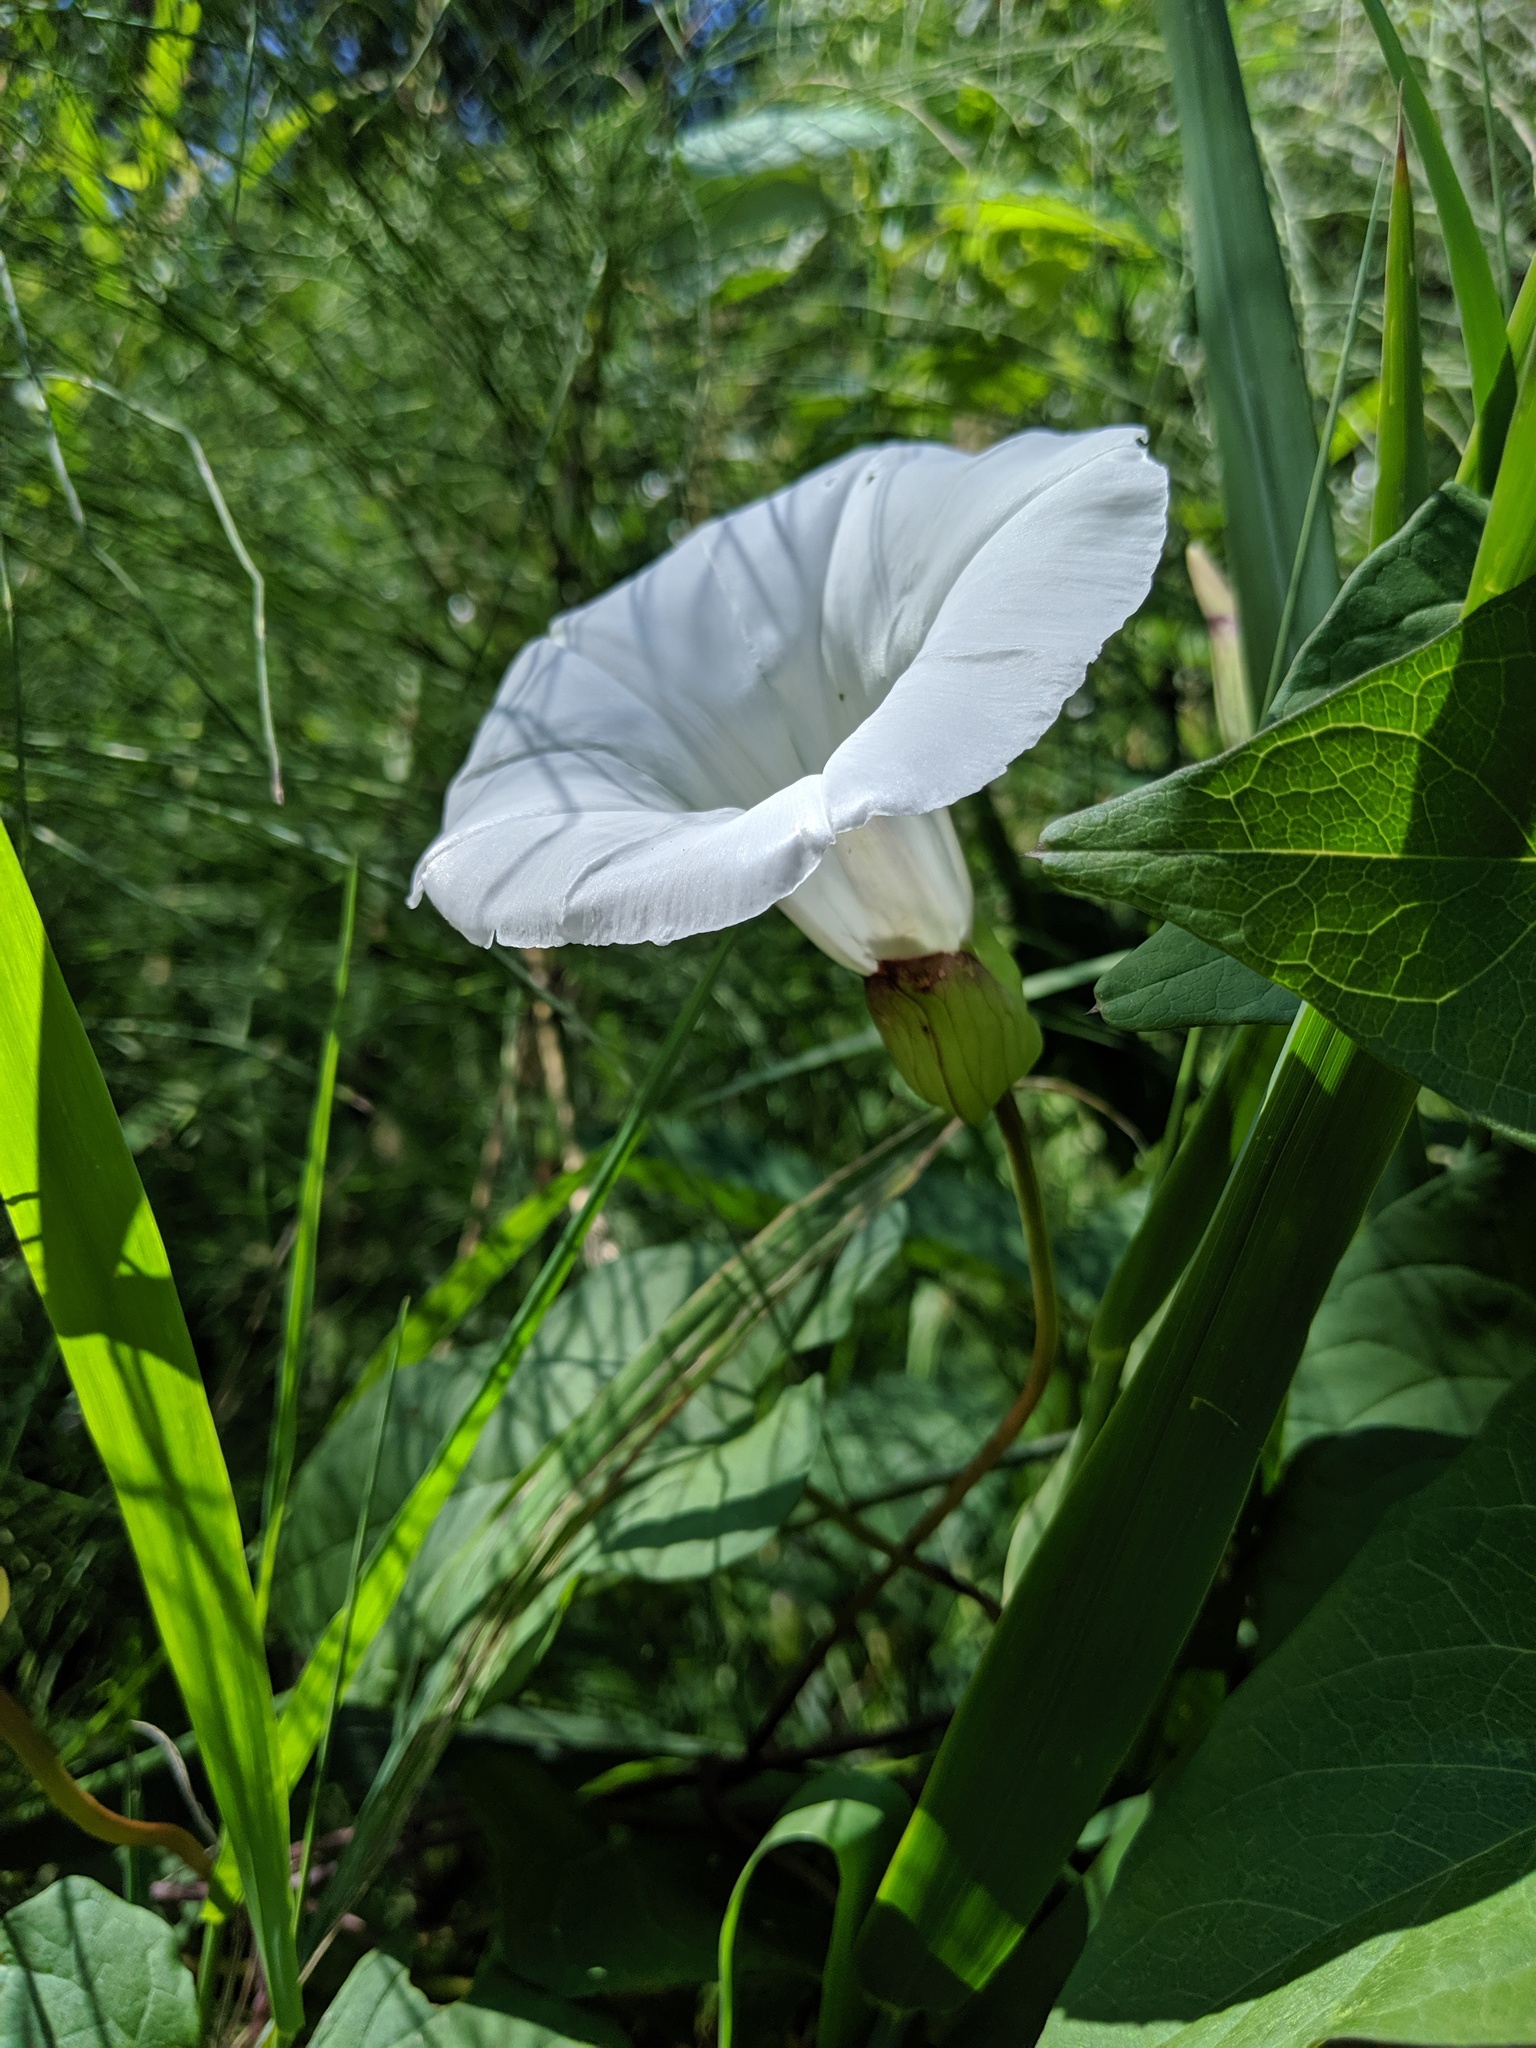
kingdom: Plantae
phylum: Tracheophyta
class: Magnoliopsida
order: Solanales
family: Convolvulaceae
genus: Calystegia
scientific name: Calystegia silvatica
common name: Large bindweed
